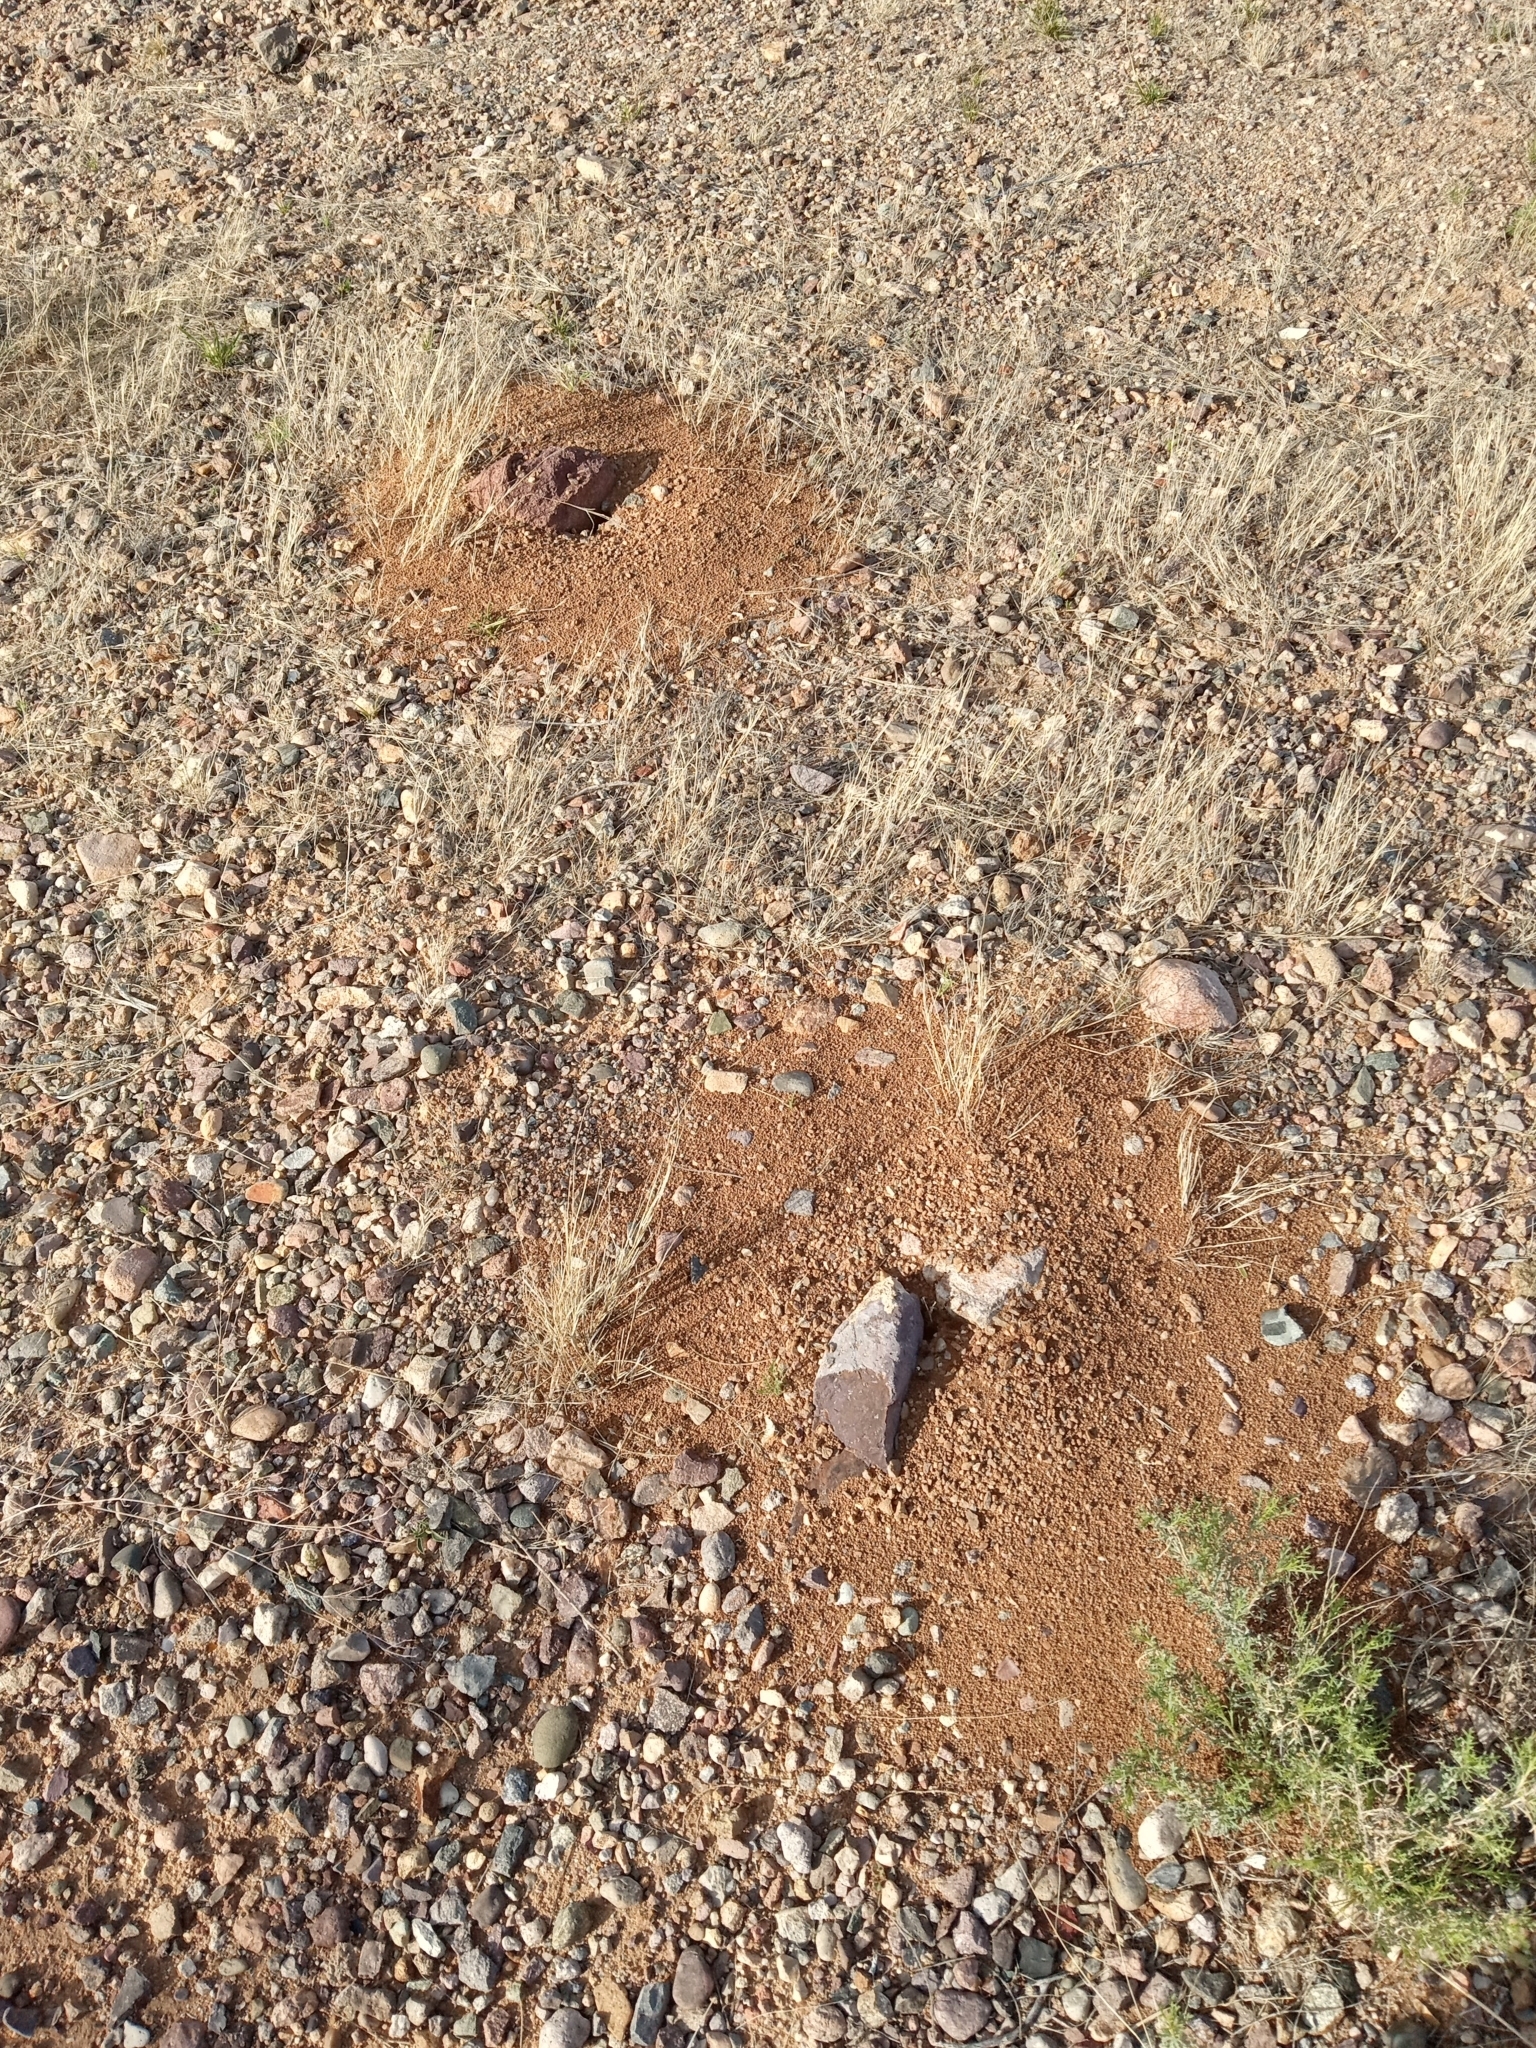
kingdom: Animalia
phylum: Arthropoda
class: Insecta
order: Hymenoptera
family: Formicidae
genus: Novomessor
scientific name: Novomessor albisetosa
